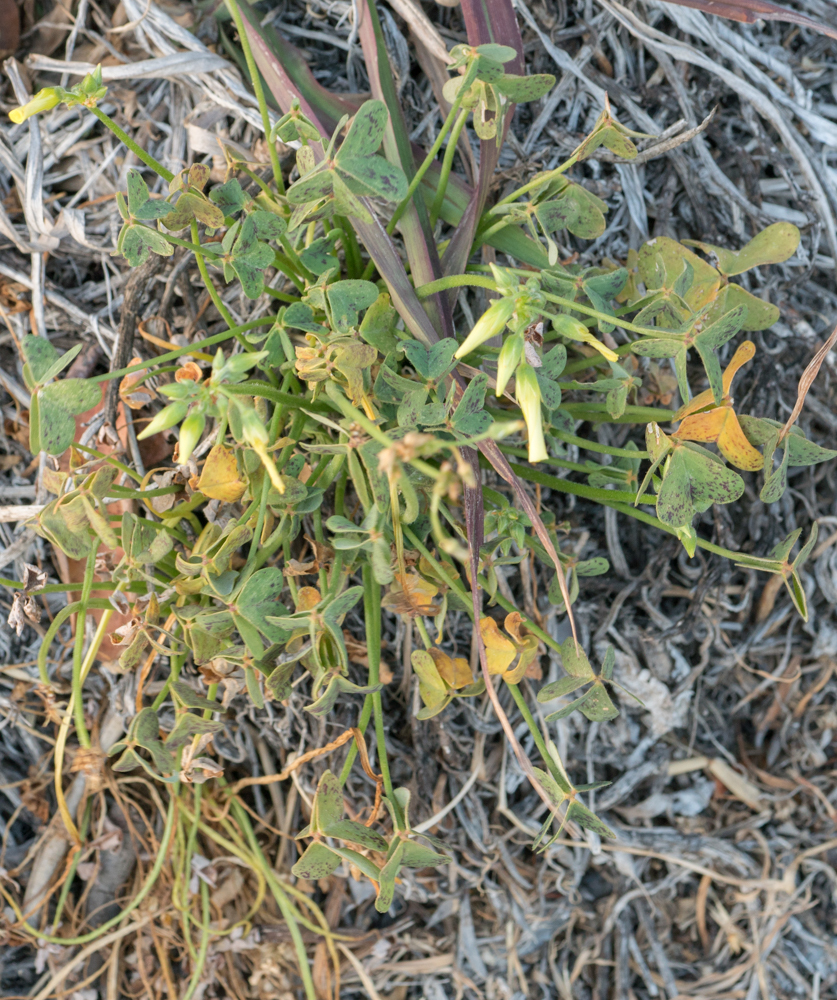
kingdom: Plantae
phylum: Tracheophyta
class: Magnoliopsida
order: Oxalidales
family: Oxalidaceae
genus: Oxalis
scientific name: Oxalis pes-caprae
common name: Bermuda-buttercup
